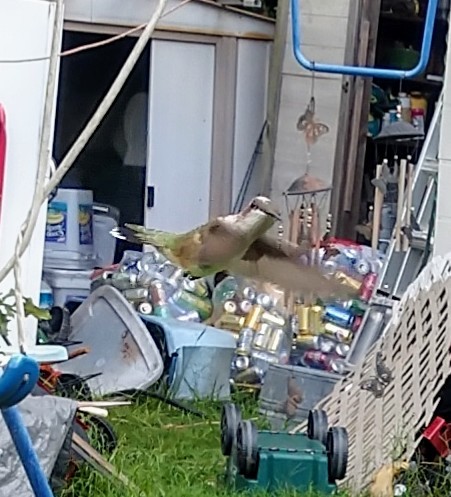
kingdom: Animalia
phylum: Chordata
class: Aves
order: Apodiformes
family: Trochilidae
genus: Archilochus
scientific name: Archilochus colubris
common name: Ruby-throated hummingbird
